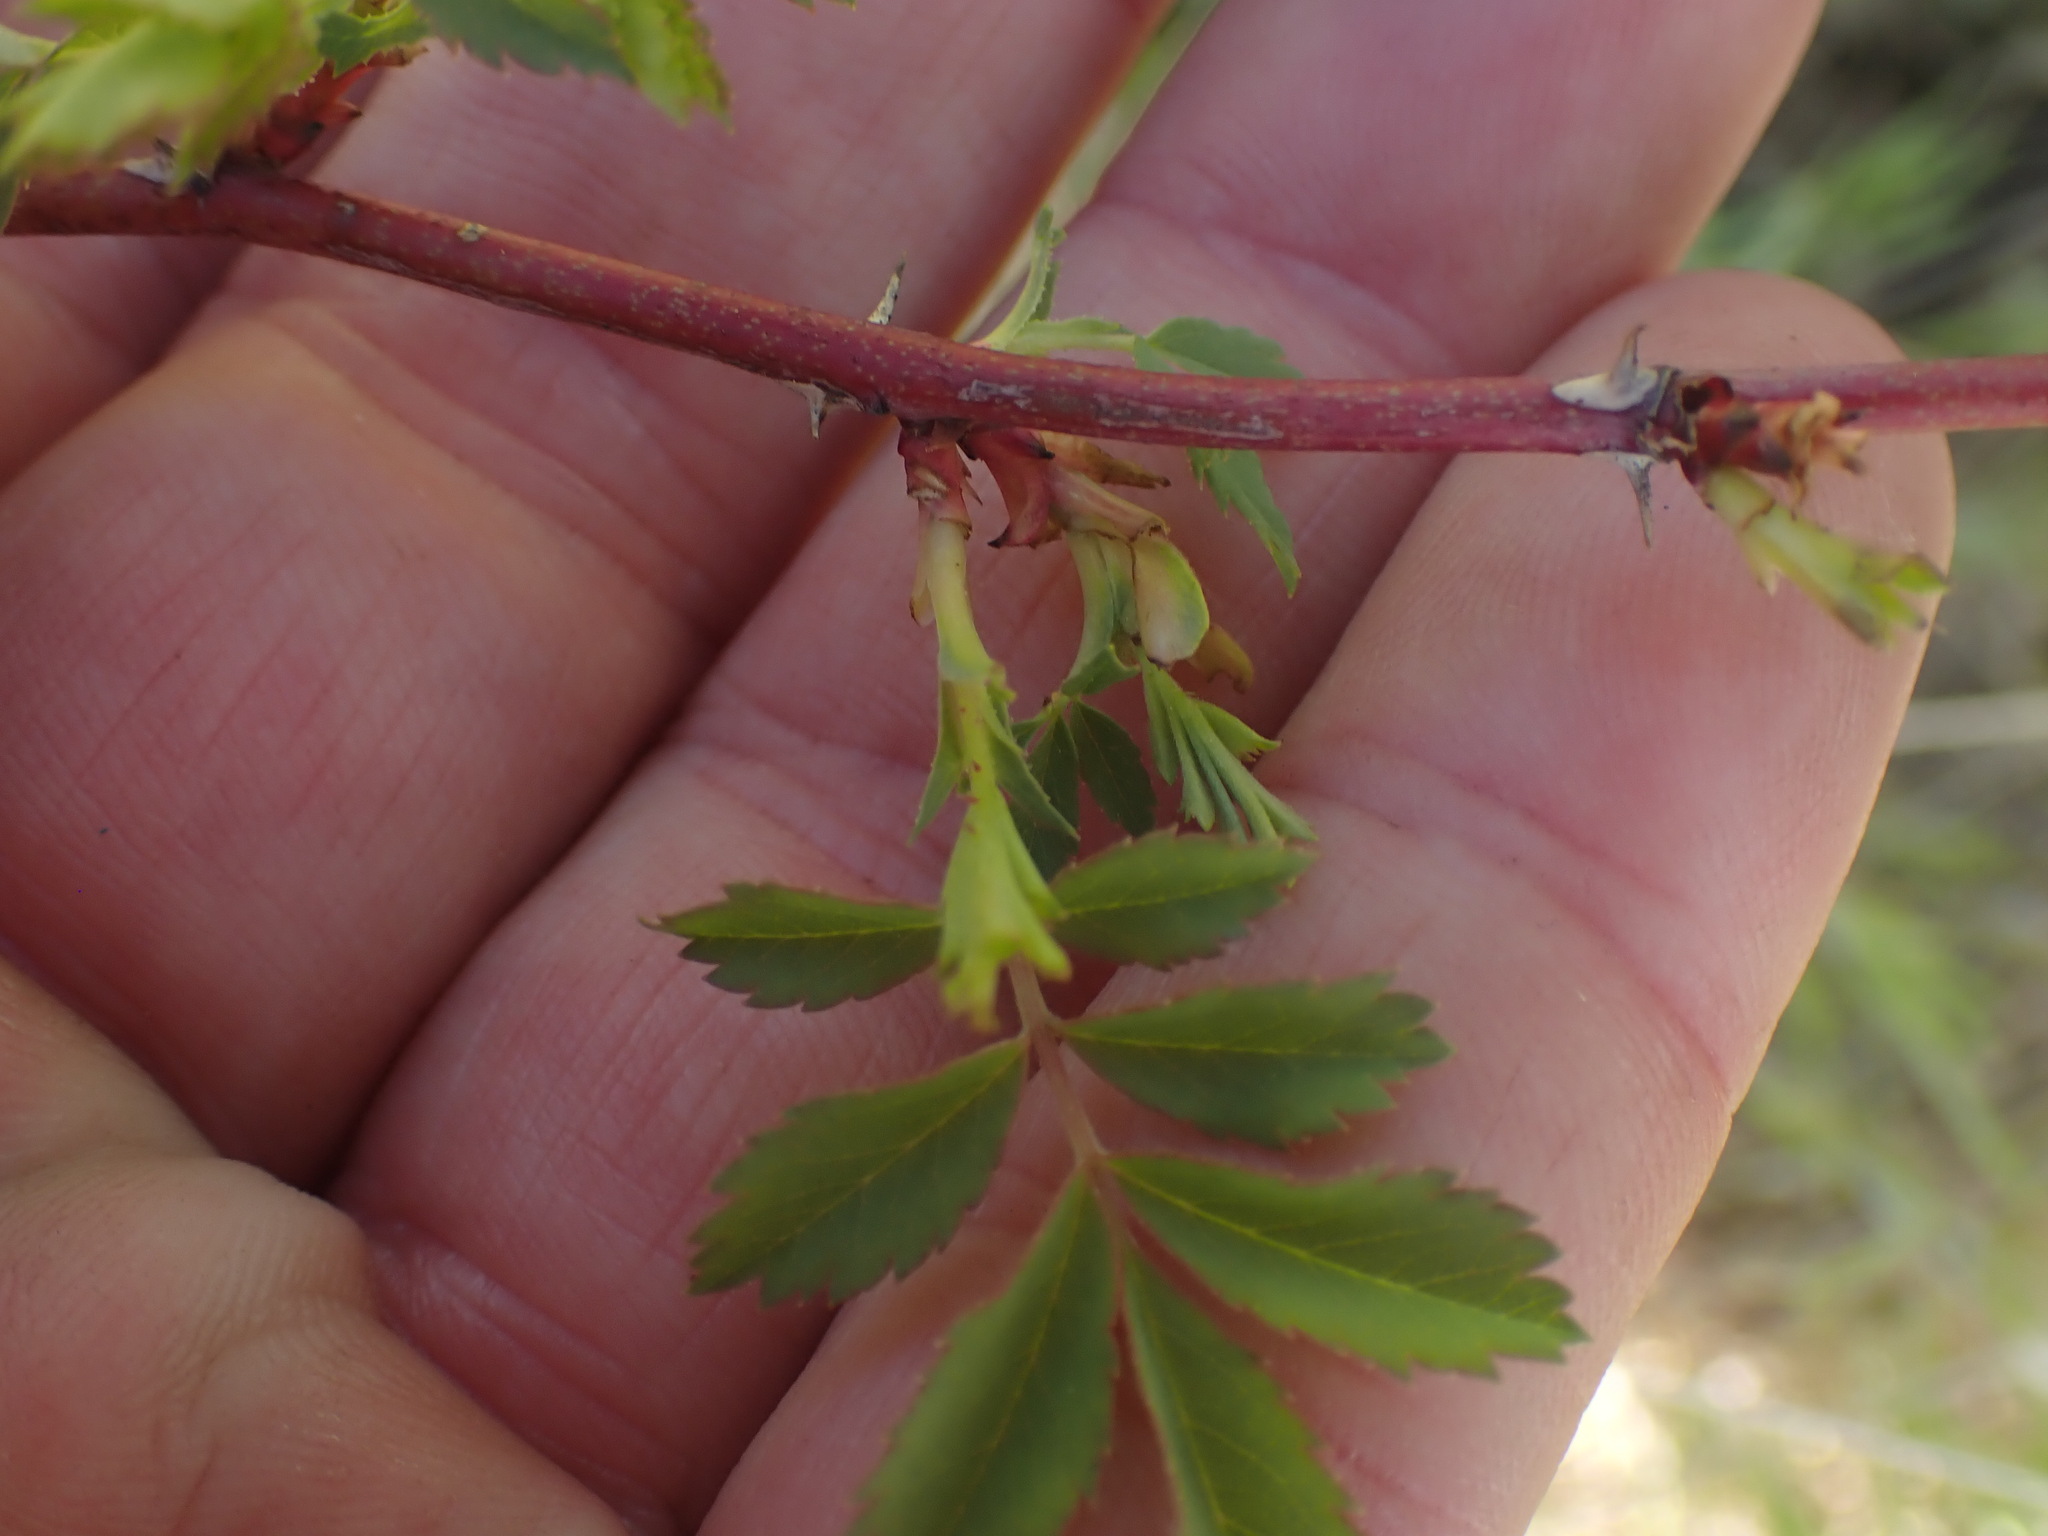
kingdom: Plantae
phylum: Tracheophyta
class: Magnoliopsida
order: Rosales
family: Rosaceae
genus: Rosa
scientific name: Rosa woodsii
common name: Woods's rose
